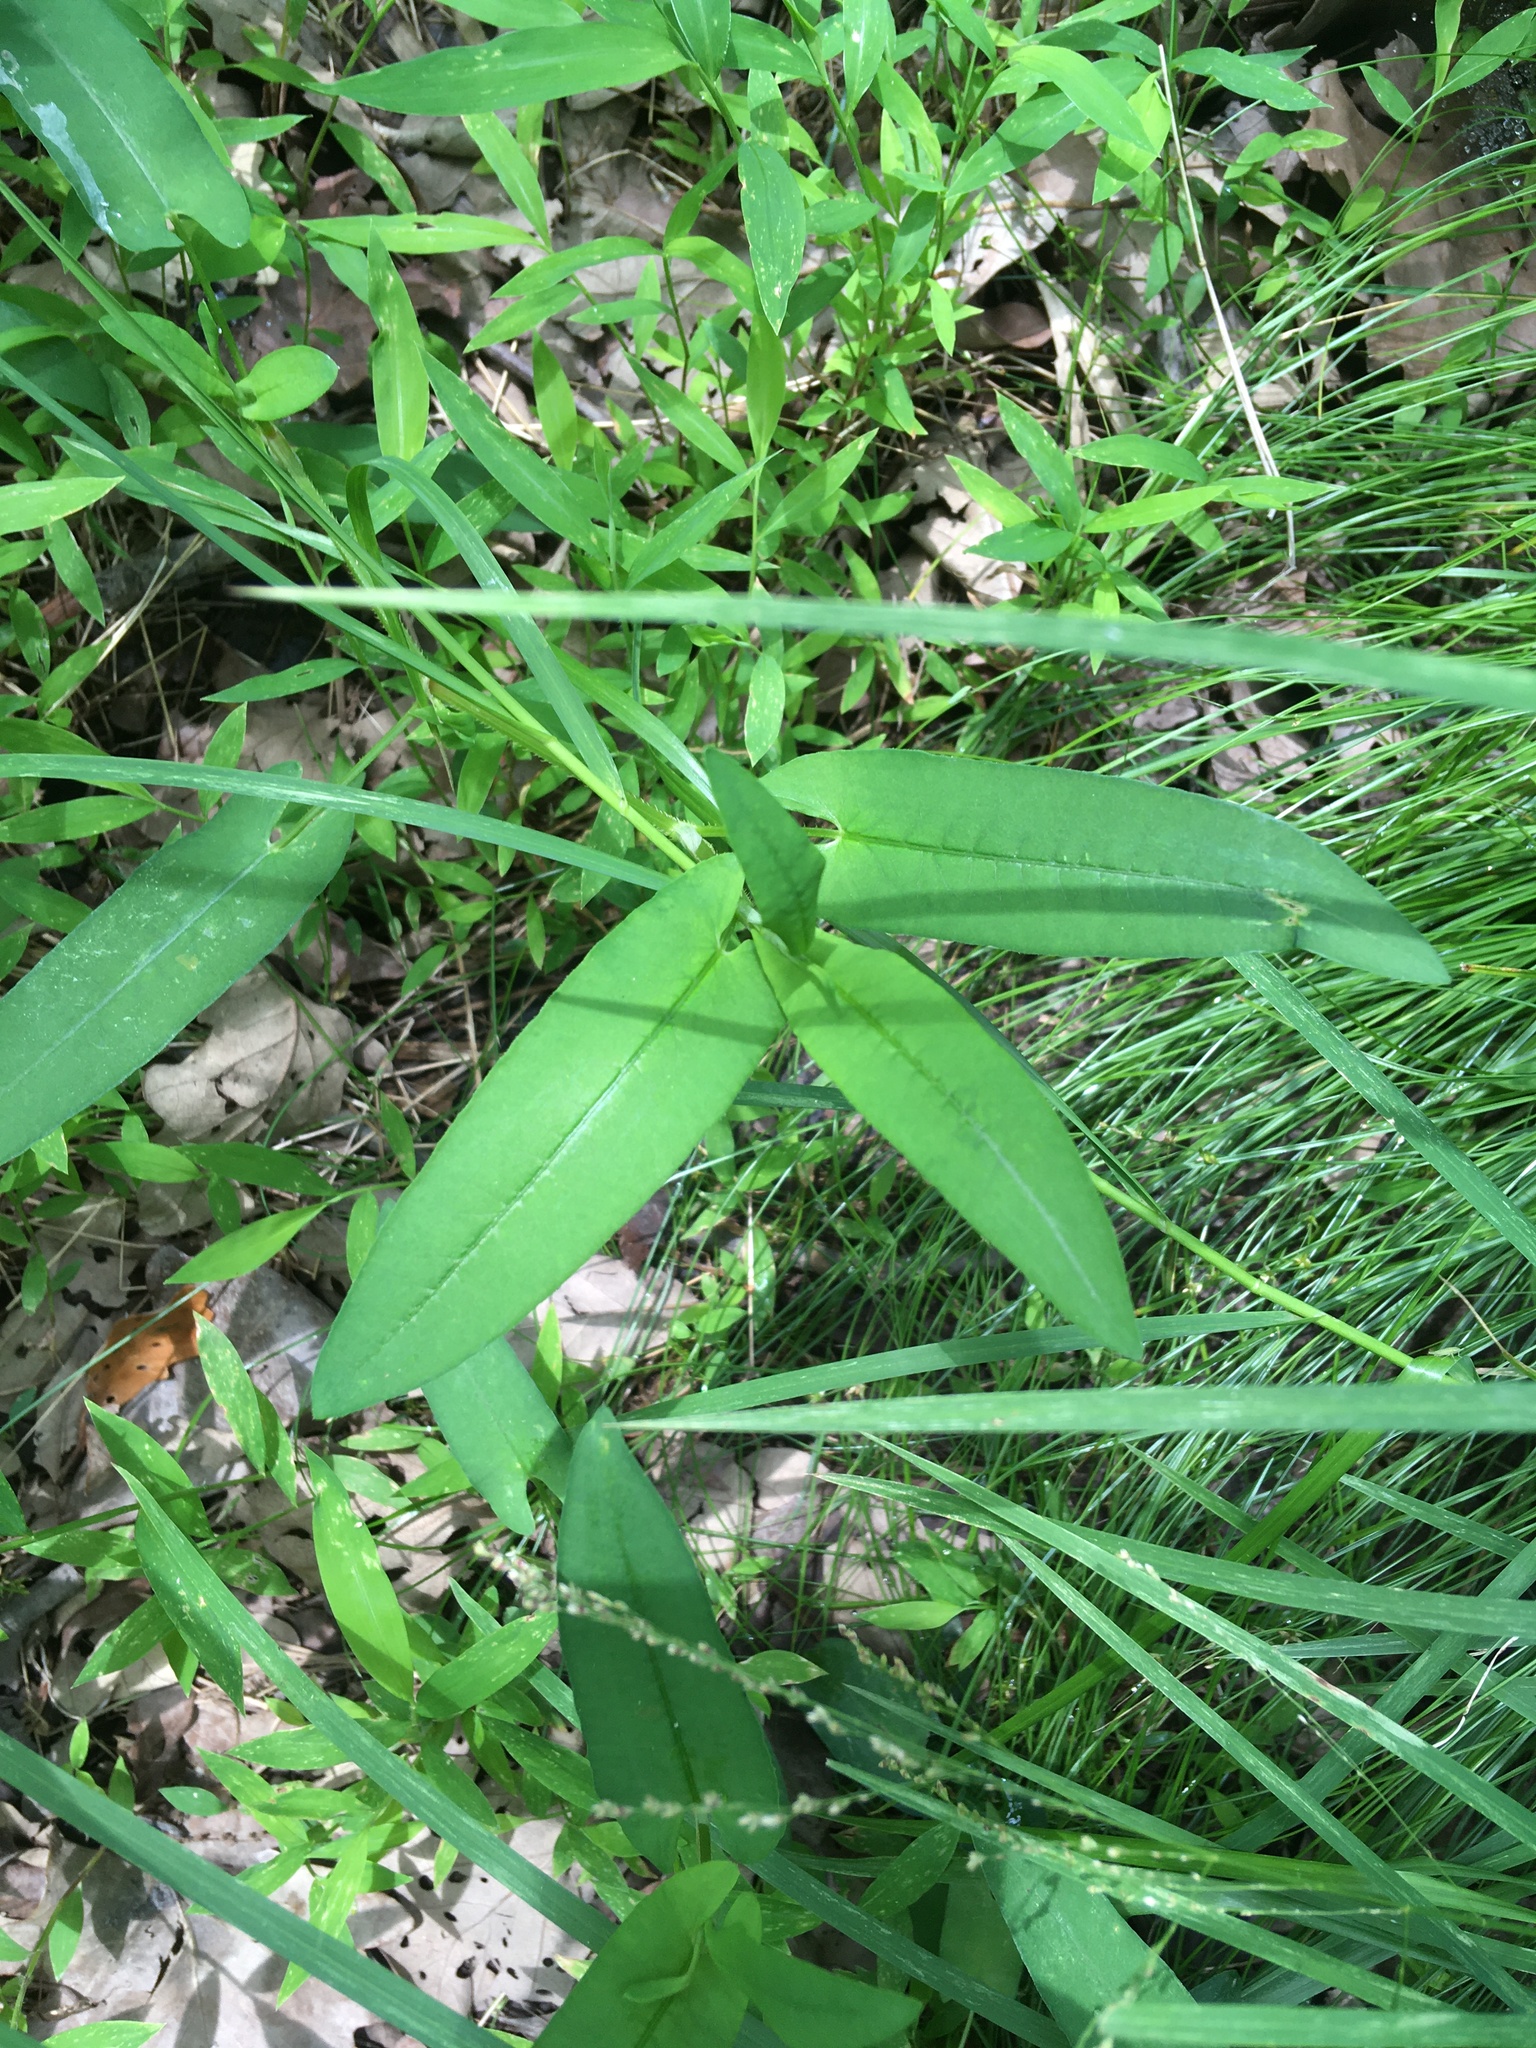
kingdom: Plantae
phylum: Tracheophyta
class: Magnoliopsida
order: Caryophyllales
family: Polygonaceae
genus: Persicaria
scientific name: Persicaria sagittata
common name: American tearthumb
